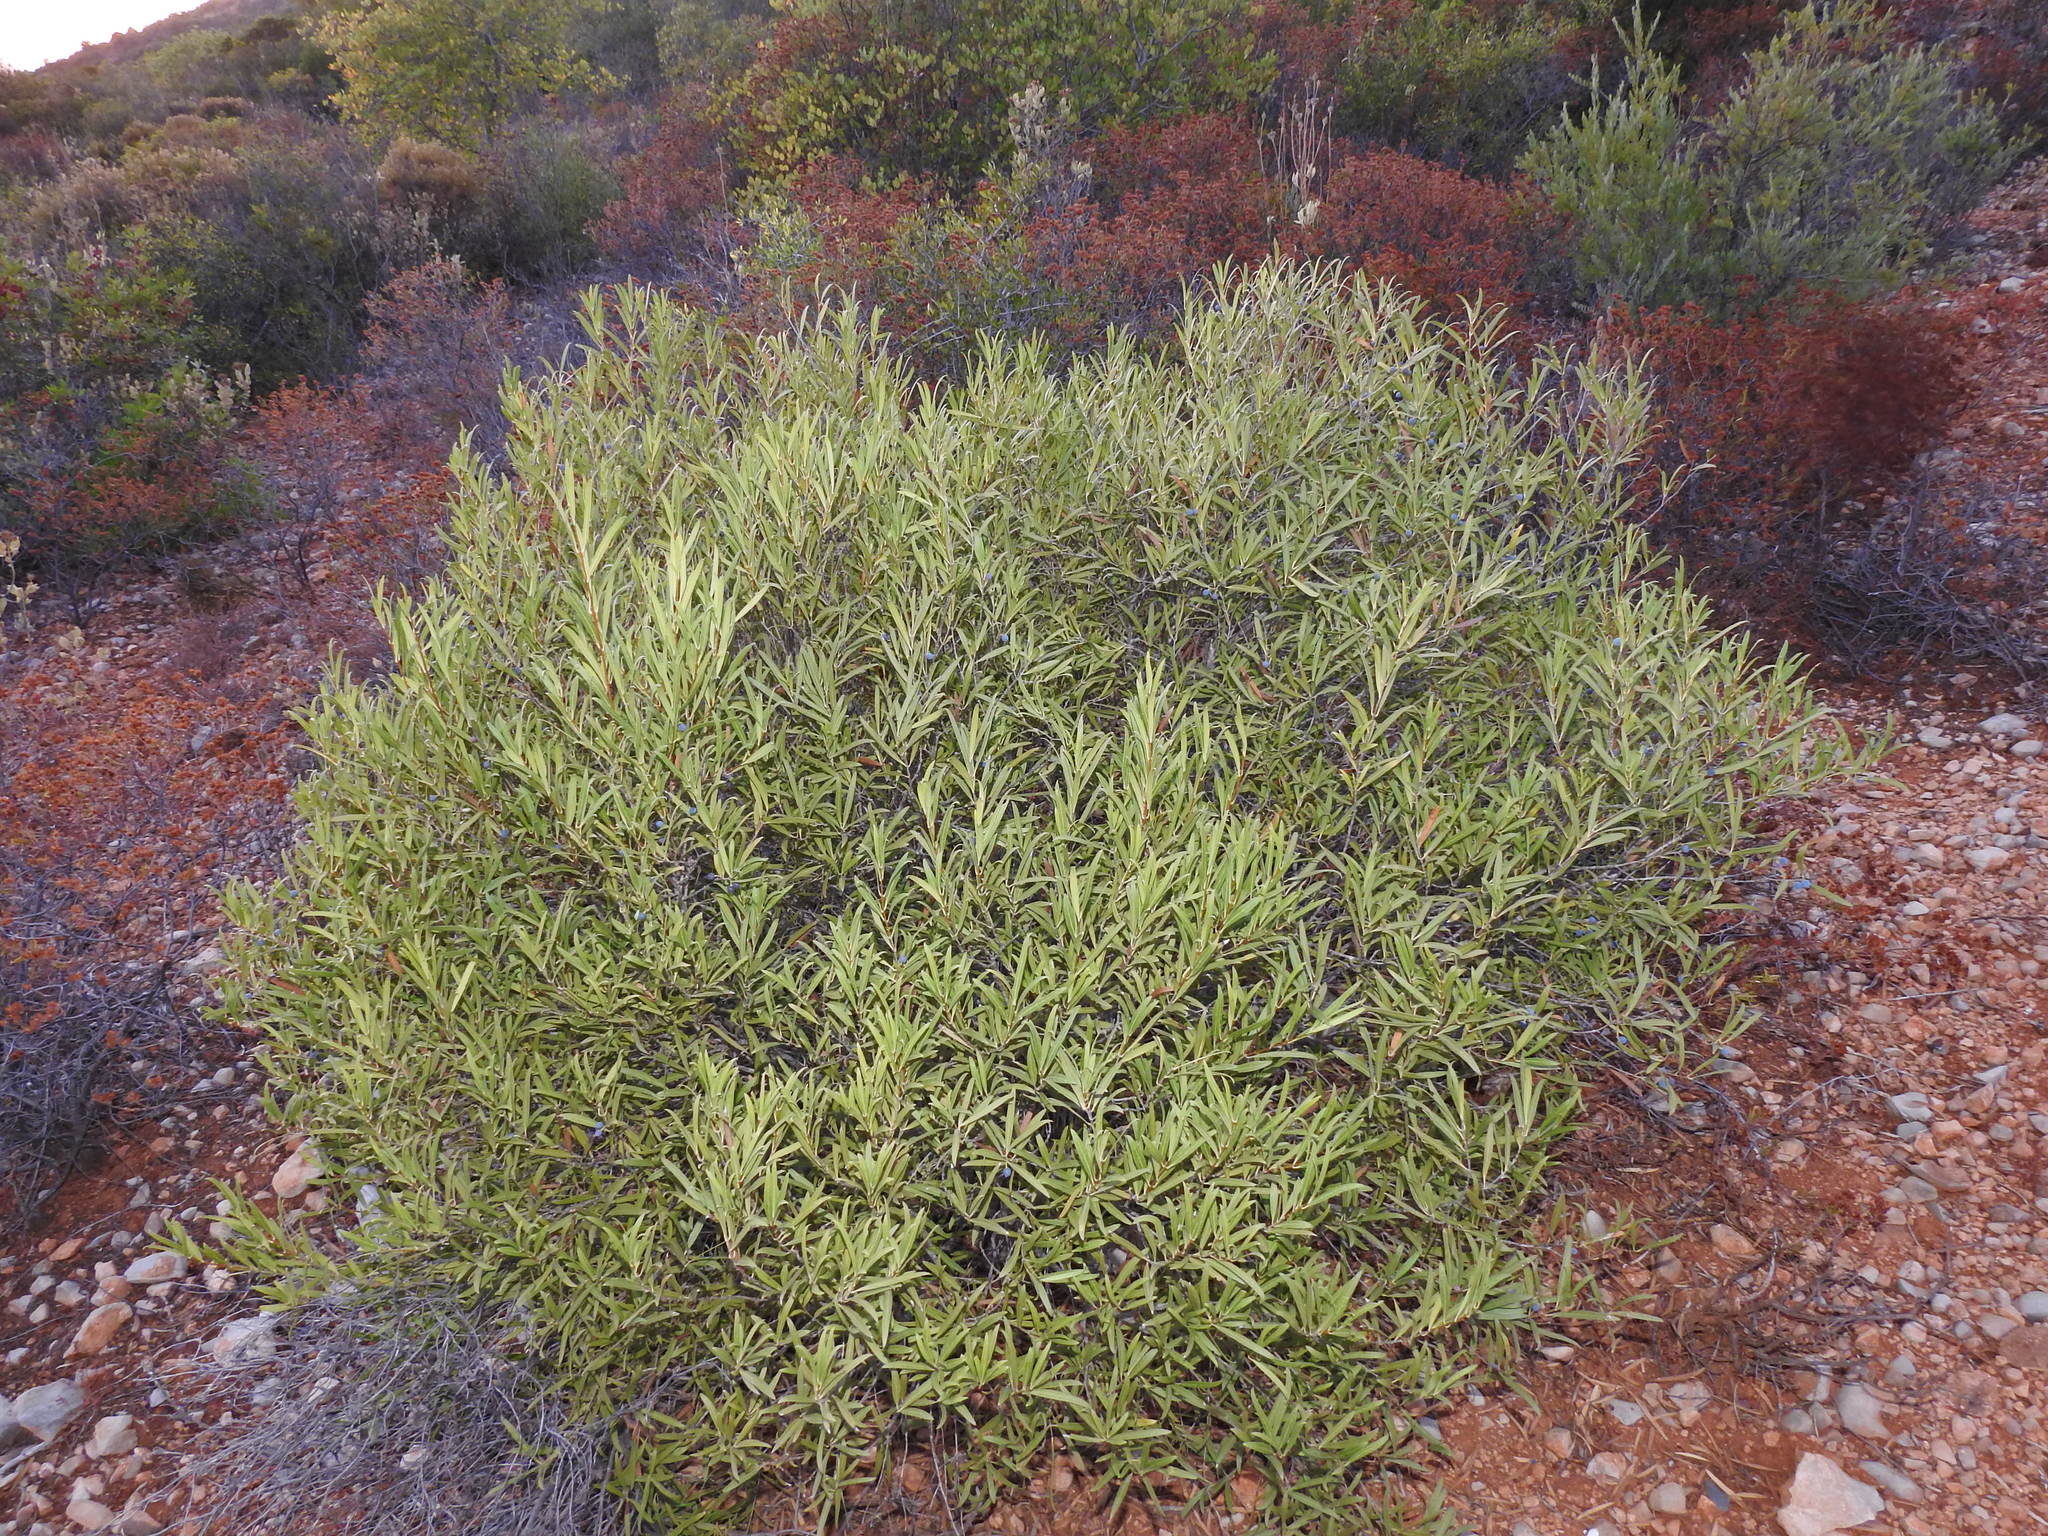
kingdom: Plantae
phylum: Tracheophyta
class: Magnoliopsida
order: Lamiales
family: Oleaceae
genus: Phillyrea
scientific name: Phillyrea angustifolia
